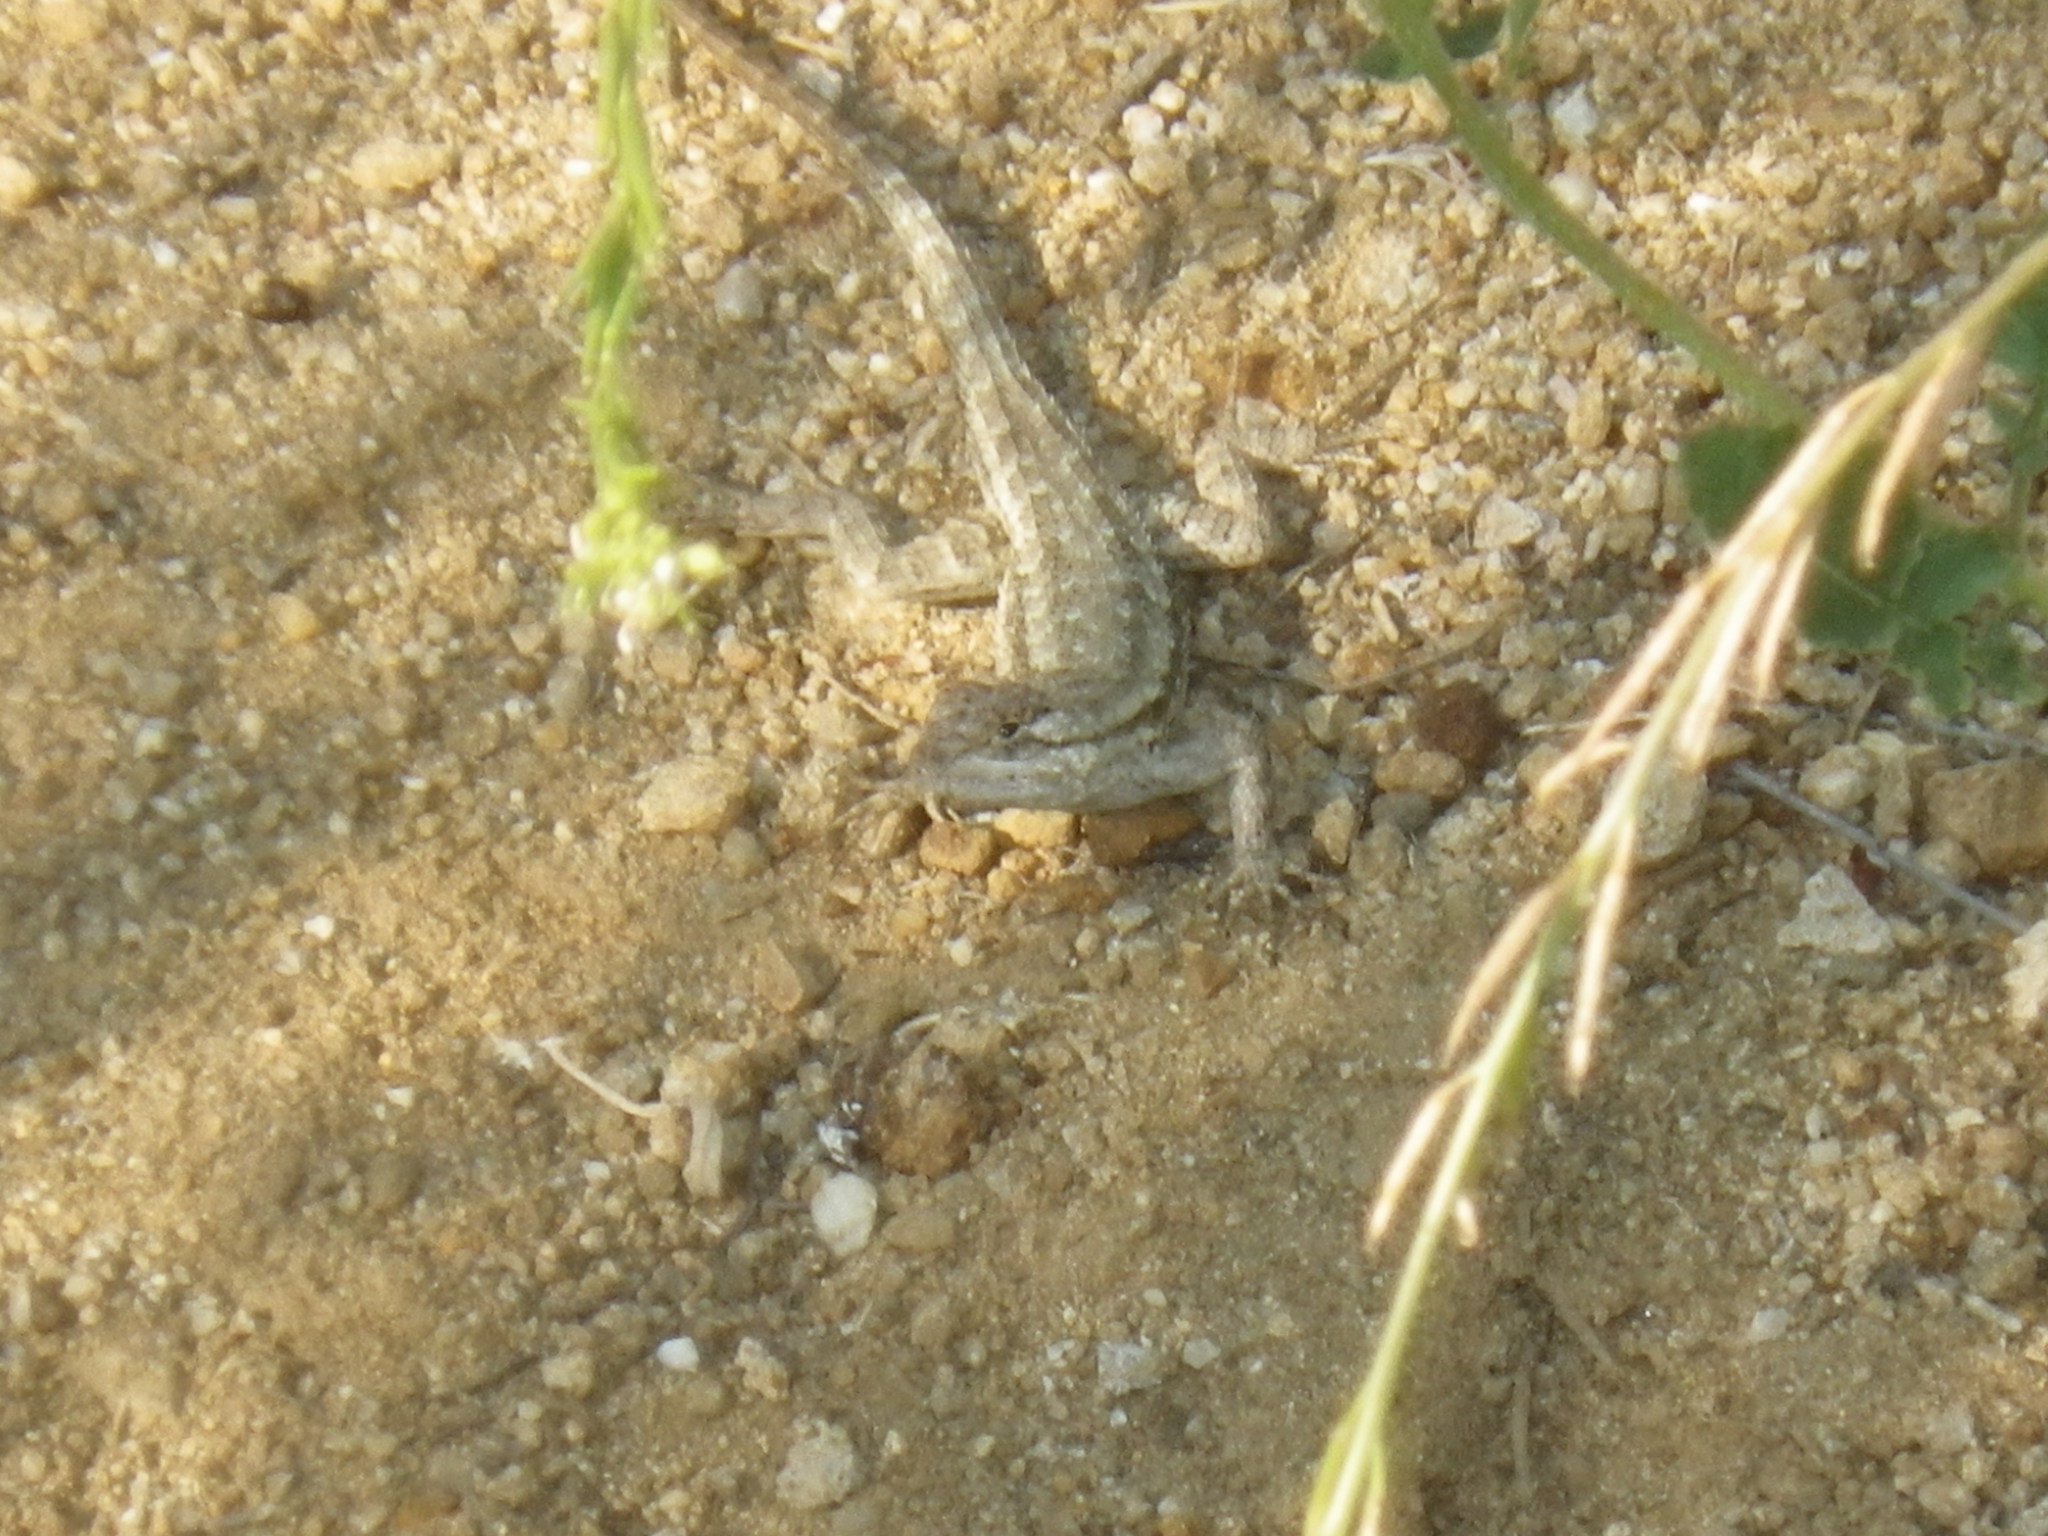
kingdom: Animalia
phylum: Chordata
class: Squamata
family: Phrynosomatidae
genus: Sceloporus
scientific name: Sceloporus occidentalis
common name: Western fence lizard
